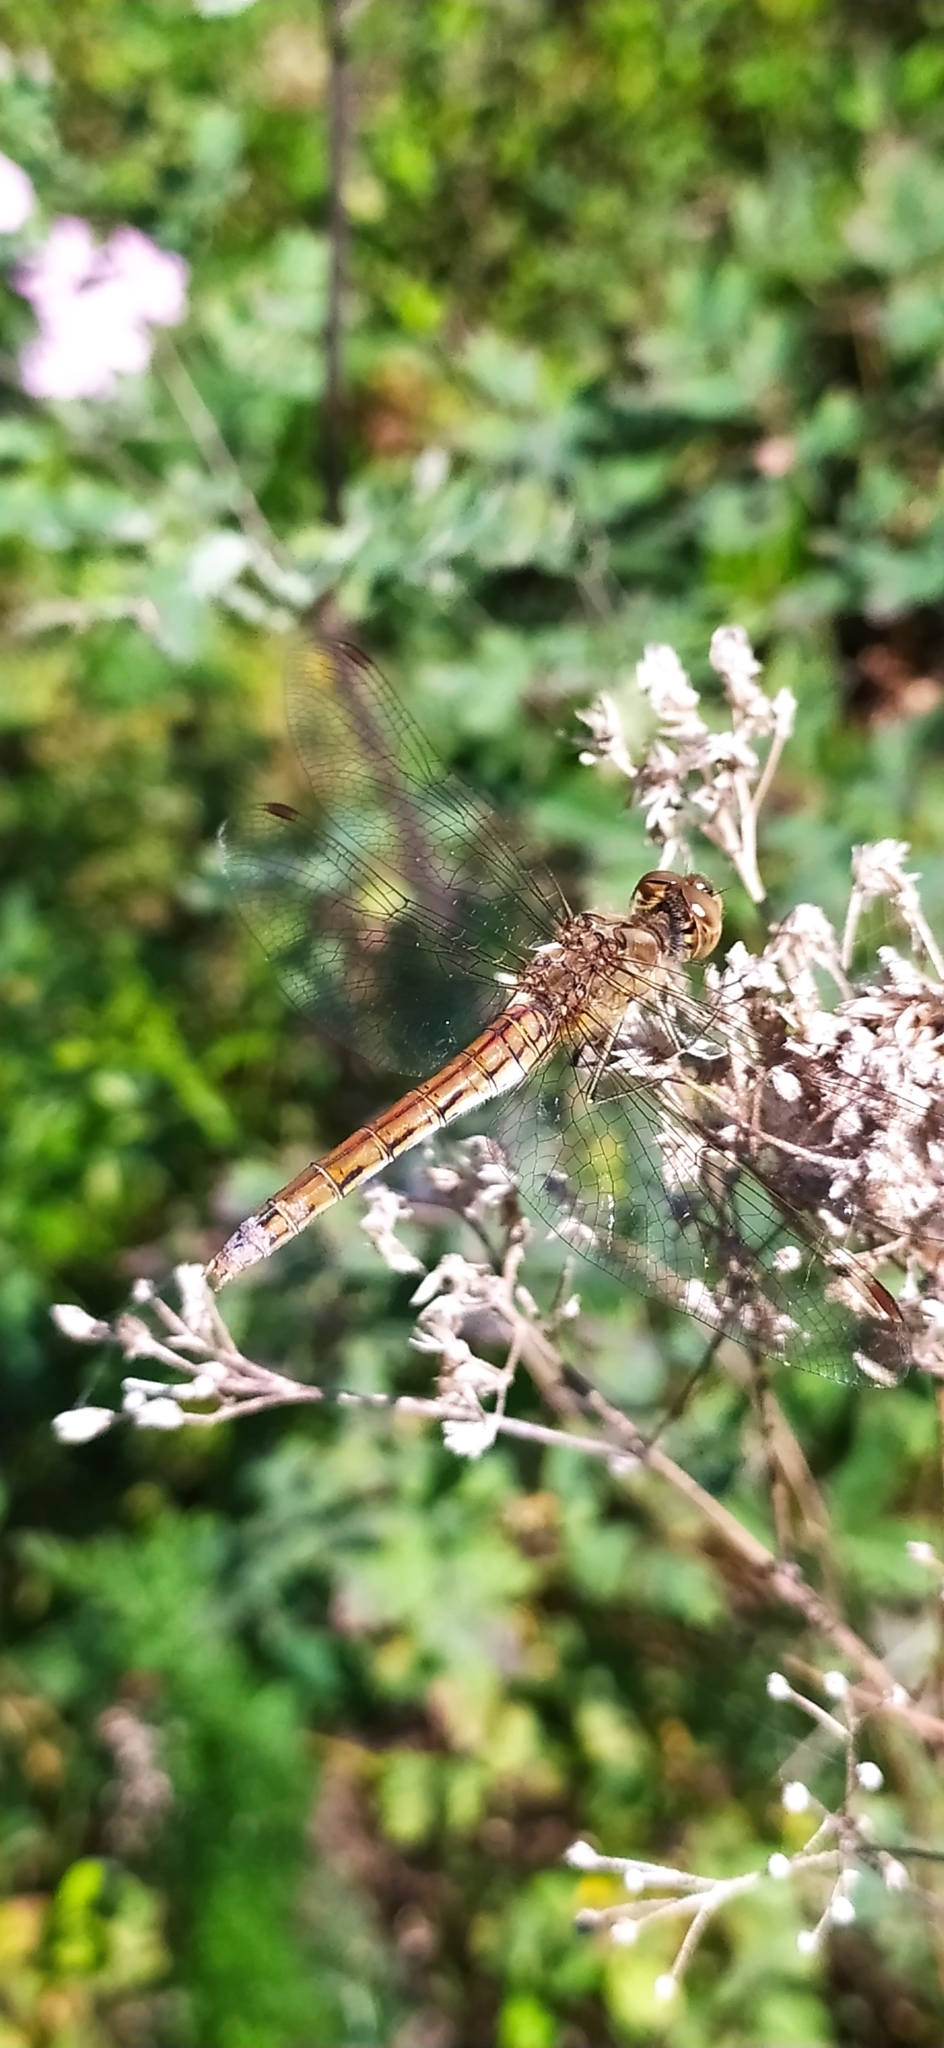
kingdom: Animalia
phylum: Arthropoda
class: Insecta
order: Odonata
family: Libellulidae
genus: Sympetrum
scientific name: Sympetrum vulgatum
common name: Vagrant darter
